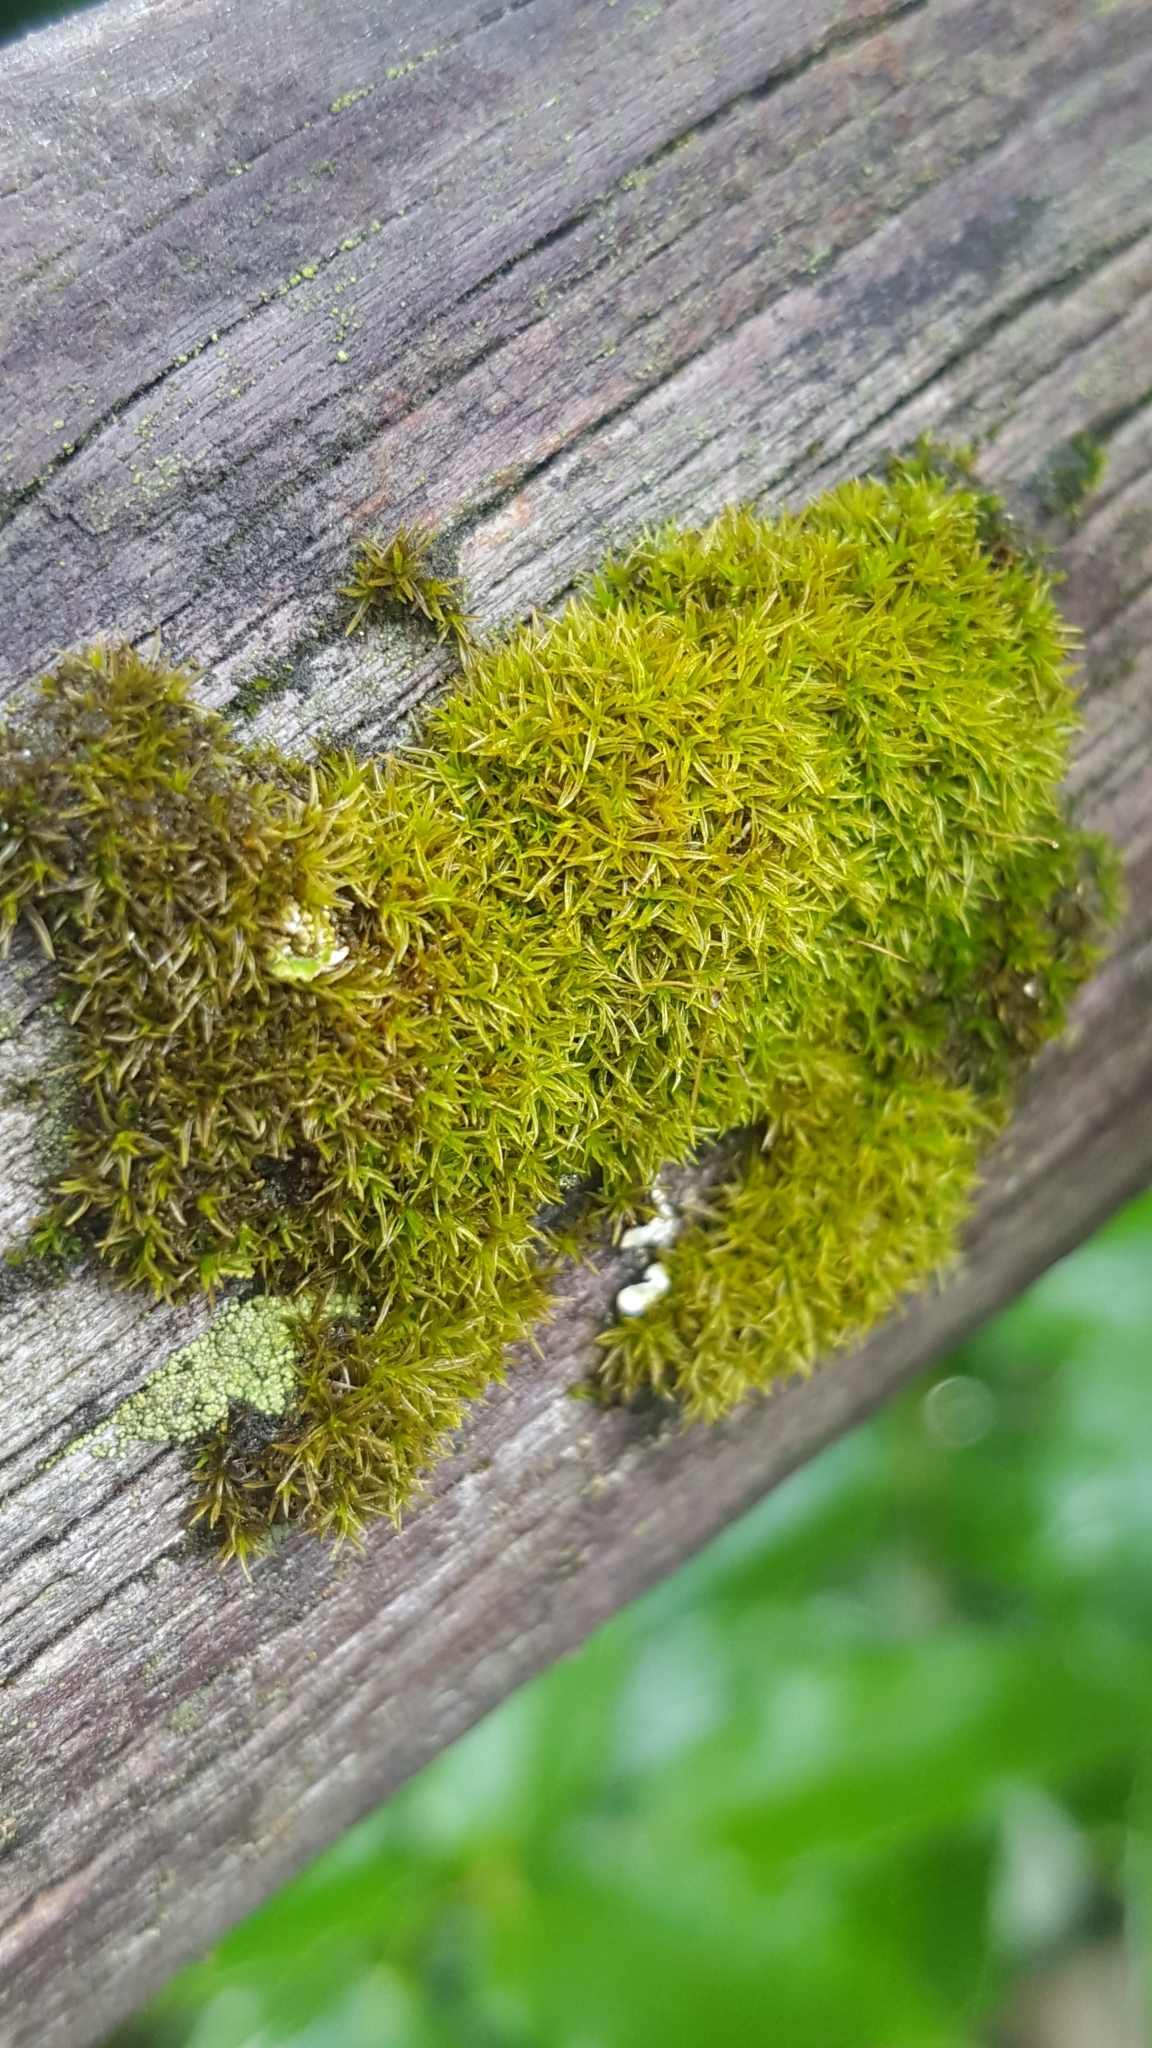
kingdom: Plantae
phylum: Bryophyta
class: Bryopsida
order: Dicranales
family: Rhabdoweisiaceae
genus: Dicranoweisia
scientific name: Dicranoweisia cirrata
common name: Common pincushion
